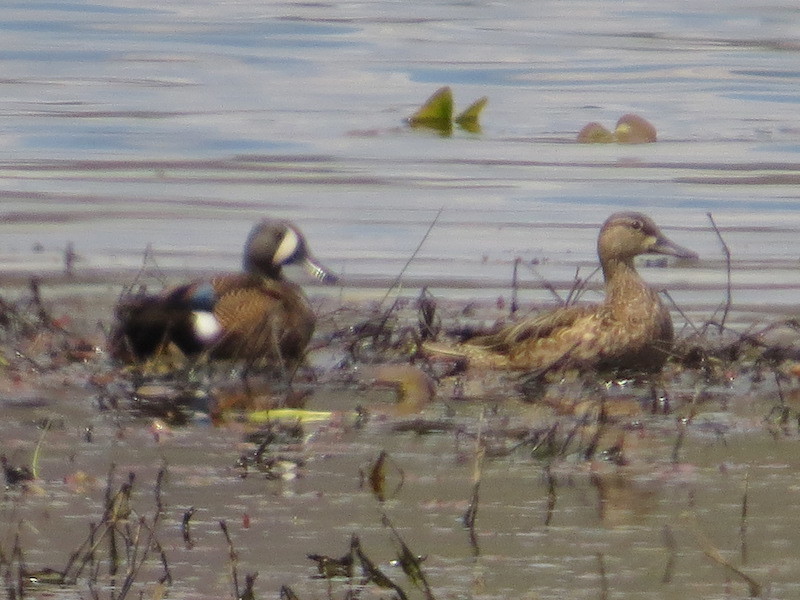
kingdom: Animalia
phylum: Chordata
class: Aves
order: Anseriformes
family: Anatidae
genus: Spatula
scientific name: Spatula discors
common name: Blue-winged teal
